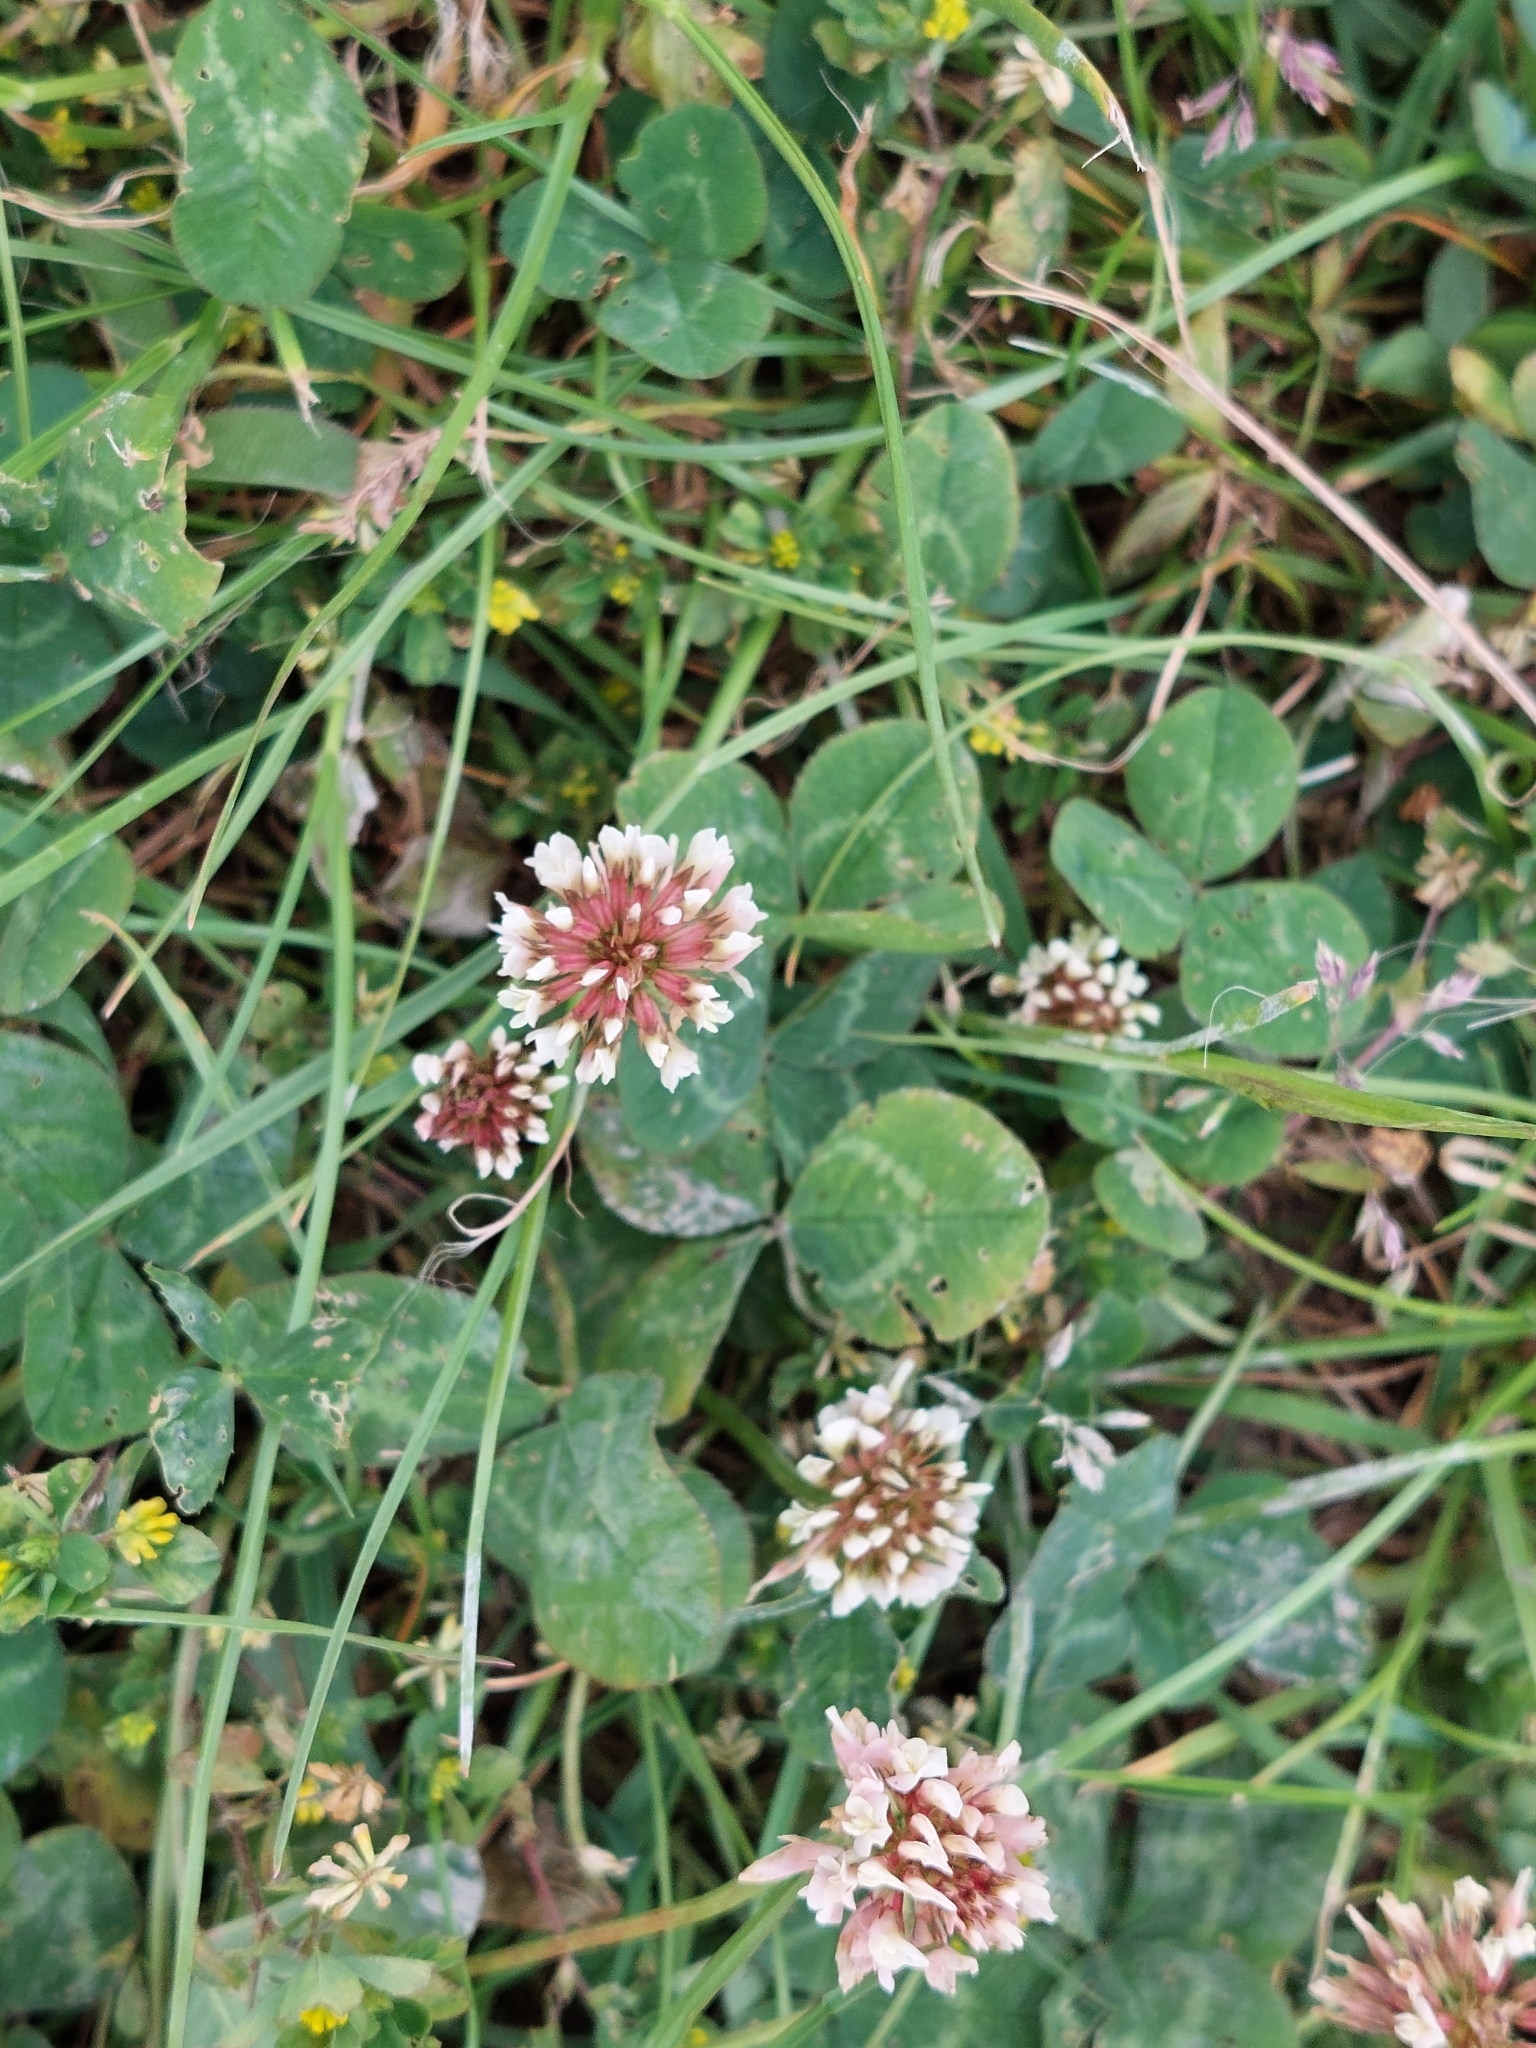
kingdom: Plantae
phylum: Tracheophyta
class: Magnoliopsida
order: Fabales
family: Fabaceae
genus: Trifolium
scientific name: Trifolium repens
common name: White clover
